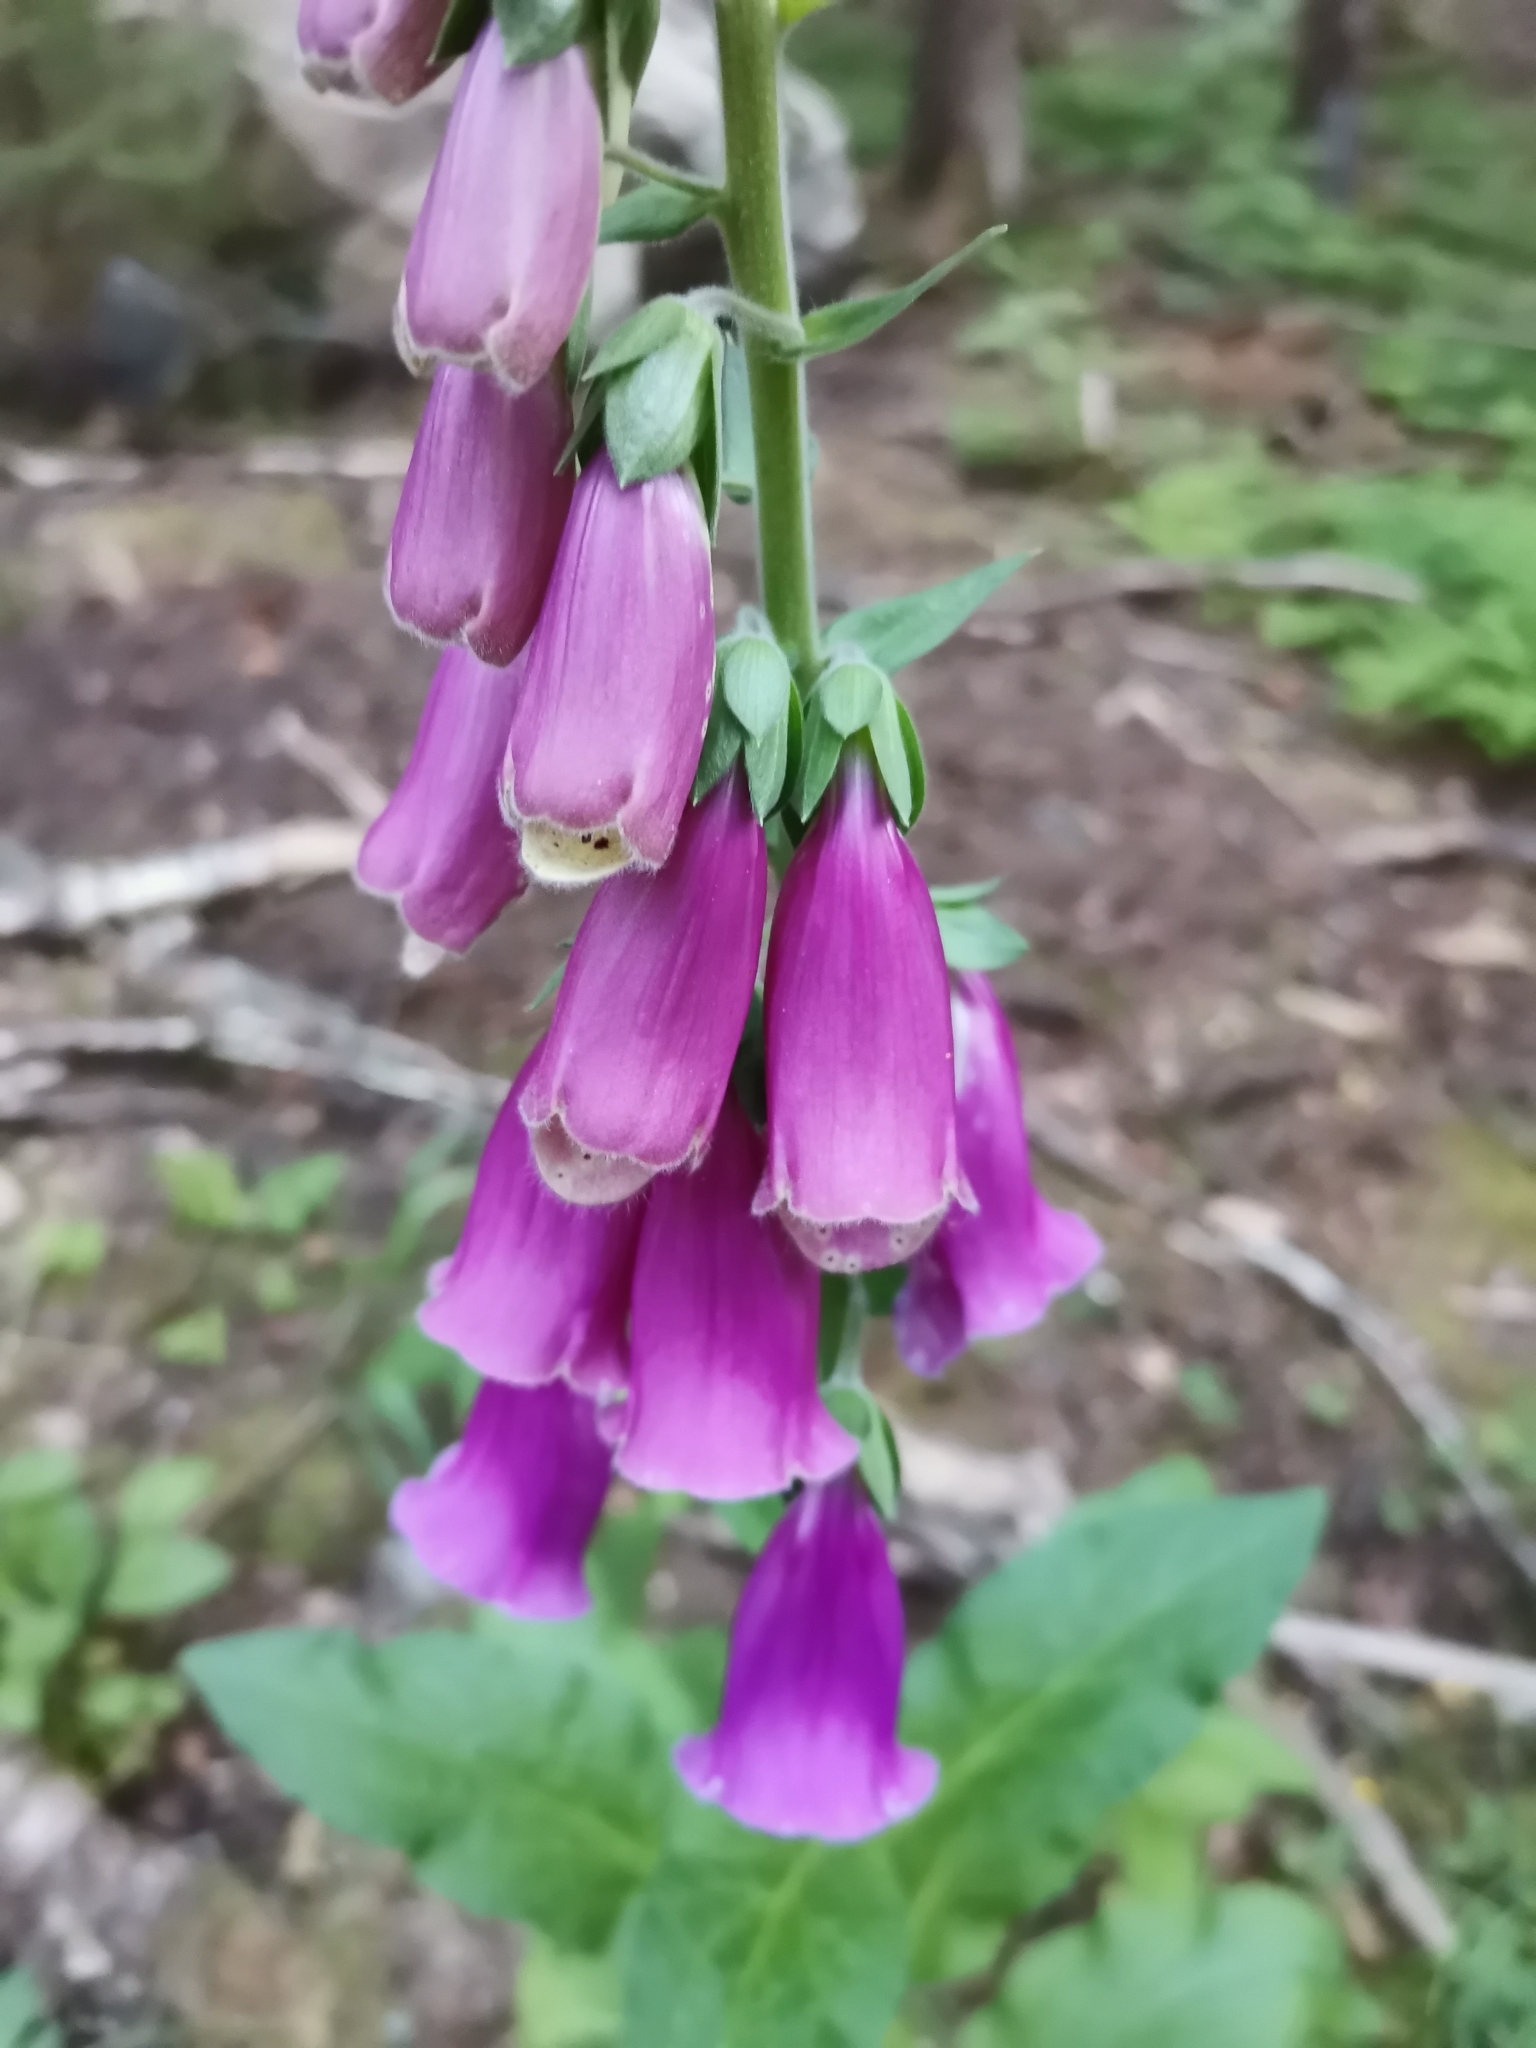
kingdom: Plantae
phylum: Tracheophyta
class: Magnoliopsida
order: Lamiales
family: Plantaginaceae
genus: Digitalis
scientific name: Digitalis purpurea
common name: Foxglove
